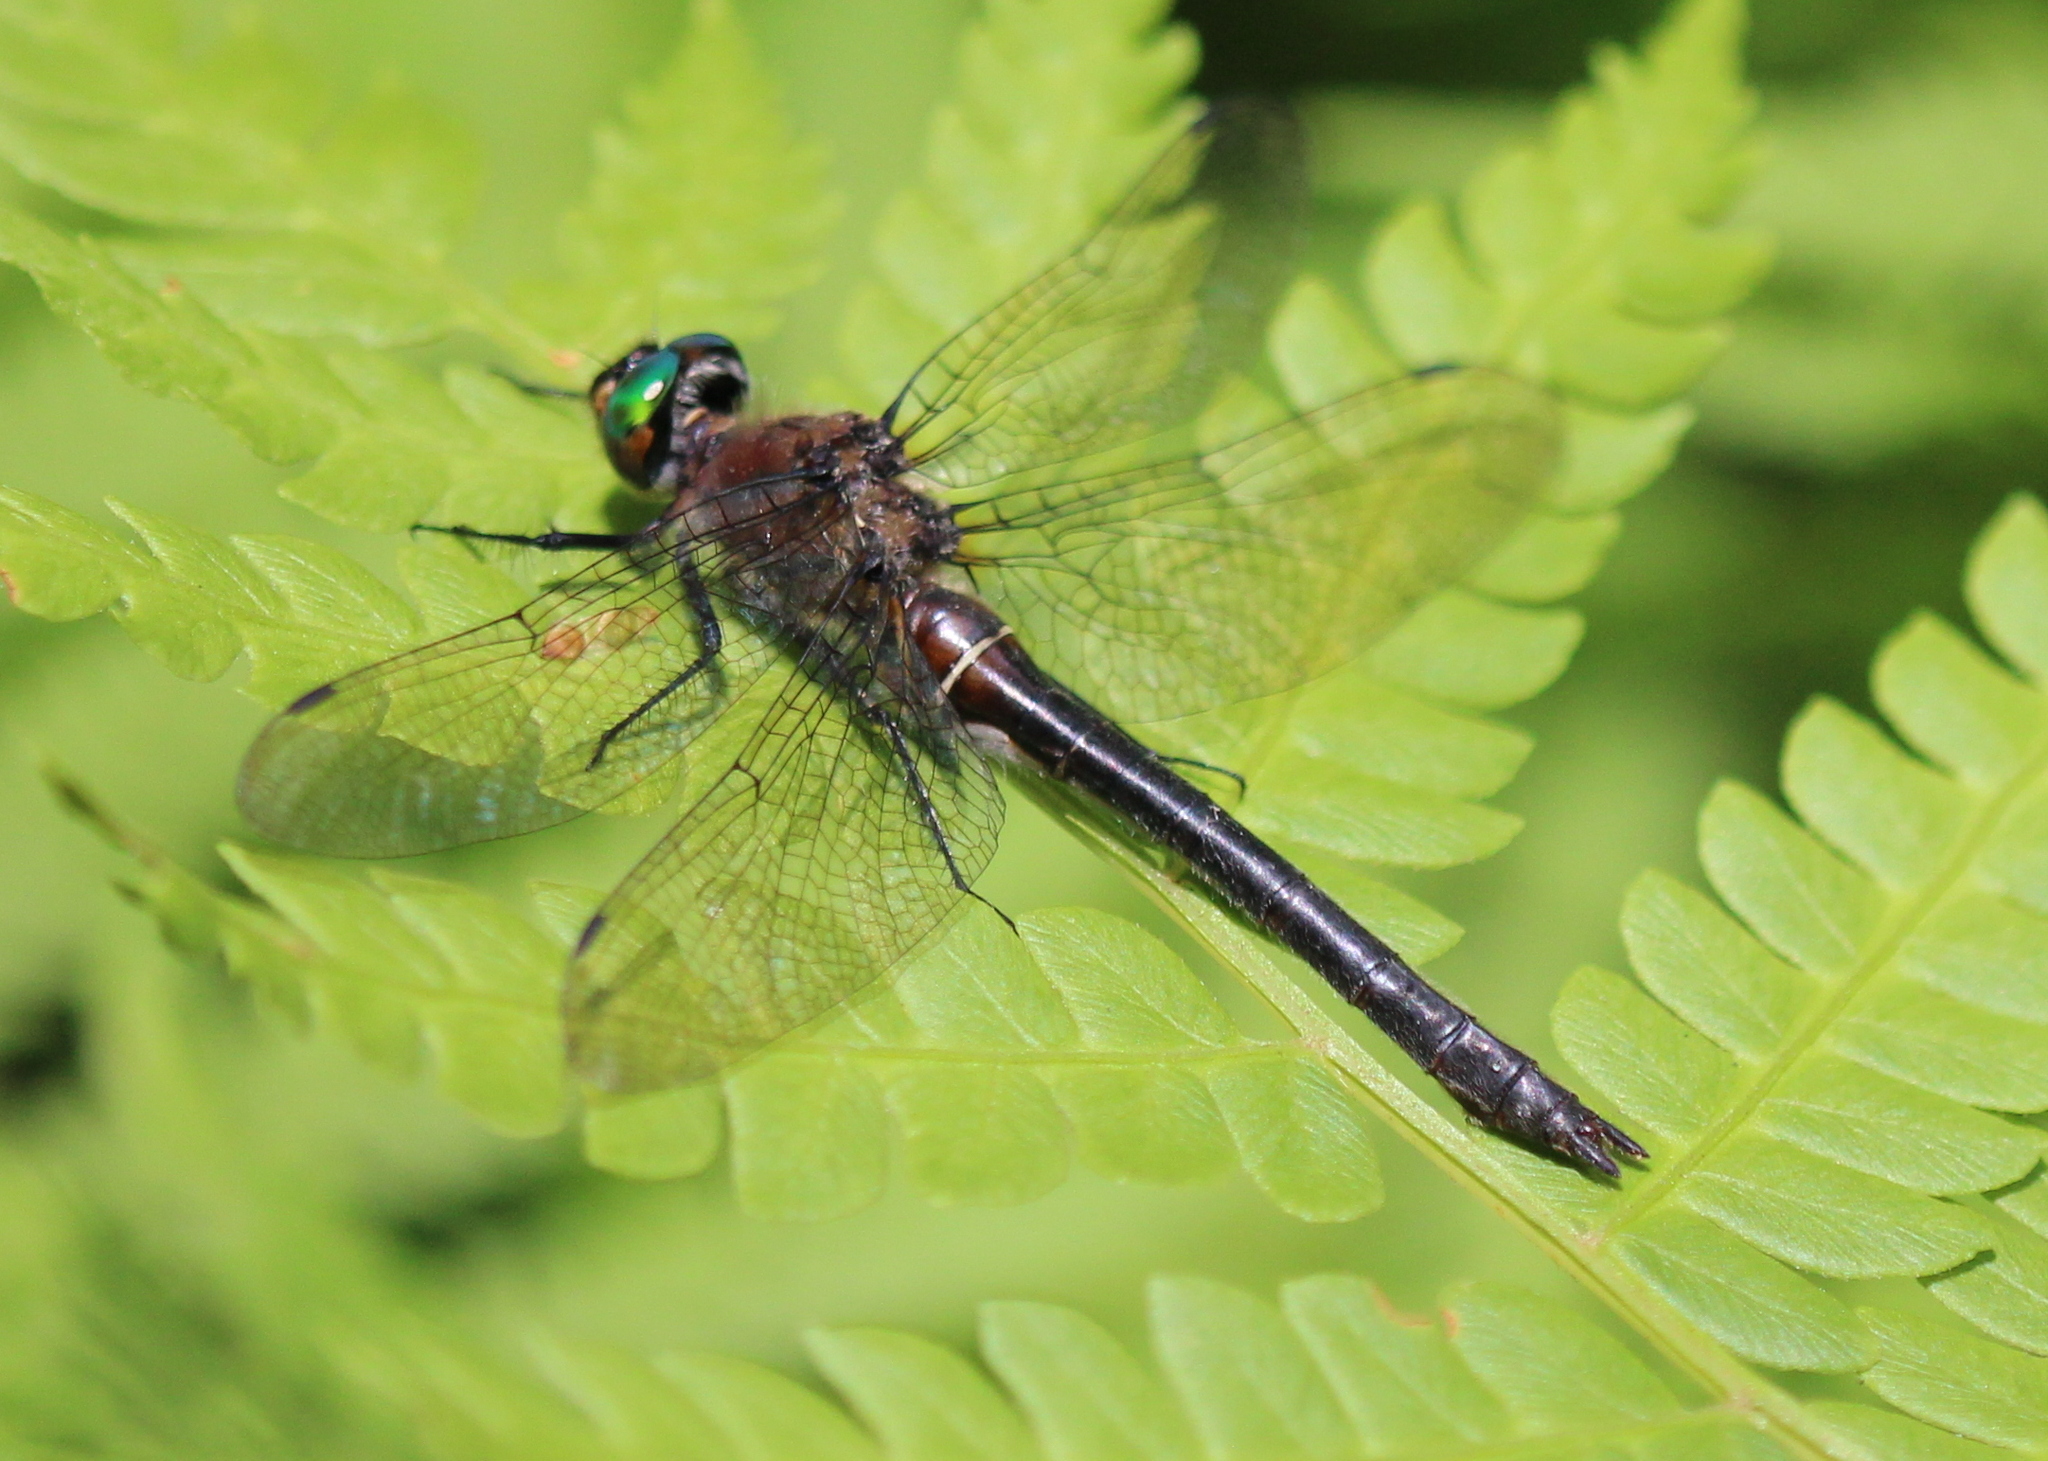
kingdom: Animalia
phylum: Arthropoda
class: Insecta
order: Odonata
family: Corduliidae
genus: Cordulia
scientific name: Cordulia shurtleffii
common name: American emerald
